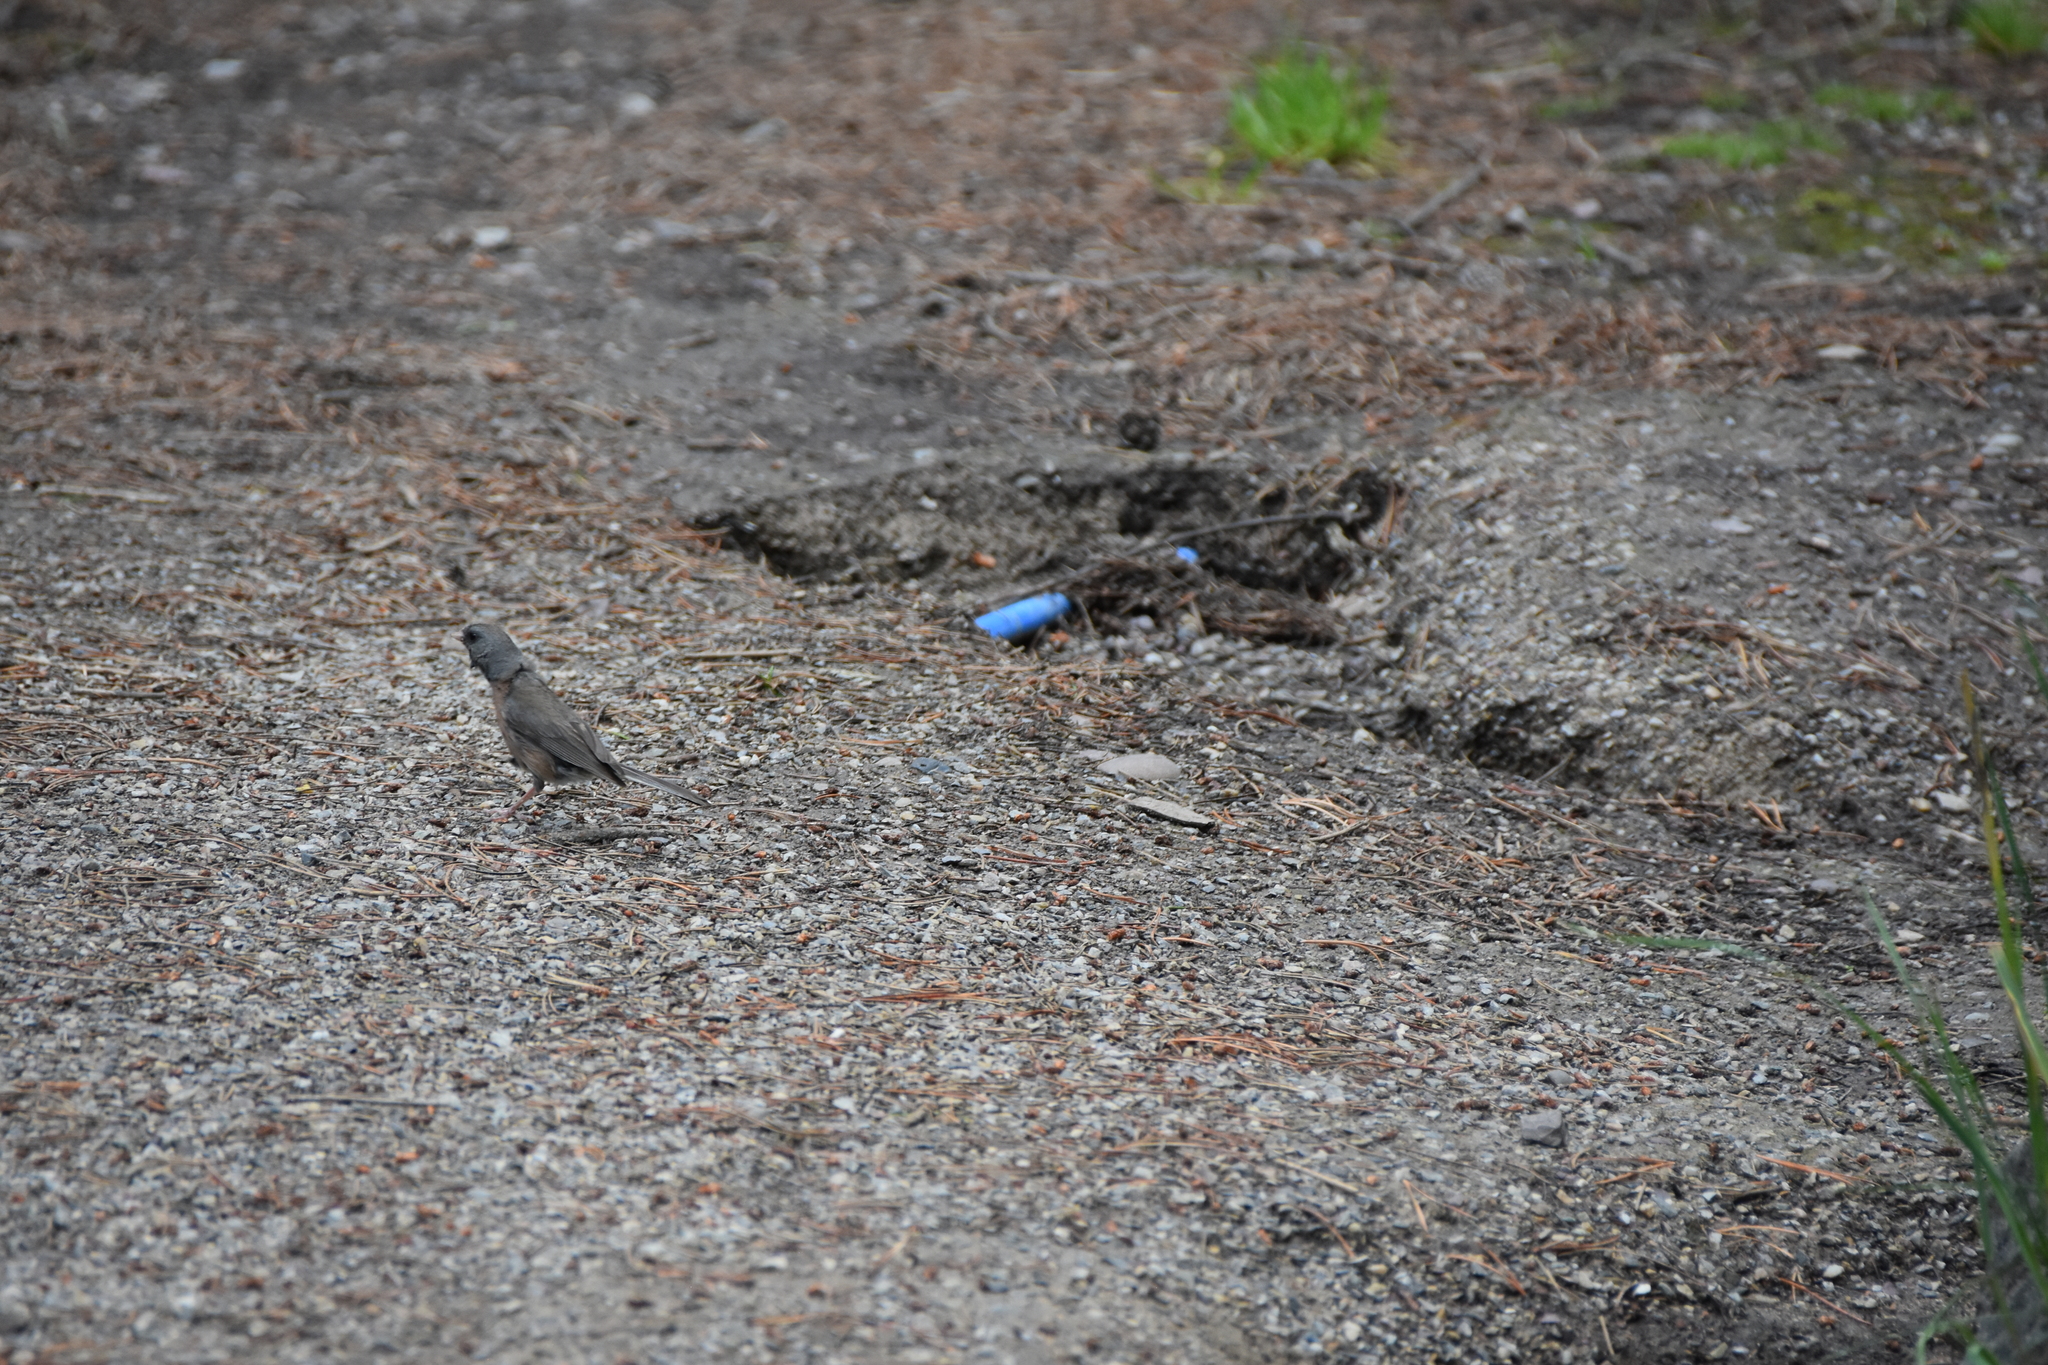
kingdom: Animalia
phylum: Chordata
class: Aves
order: Passeriformes
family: Passerellidae
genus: Junco
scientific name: Junco hyemalis
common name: Dark-eyed junco
